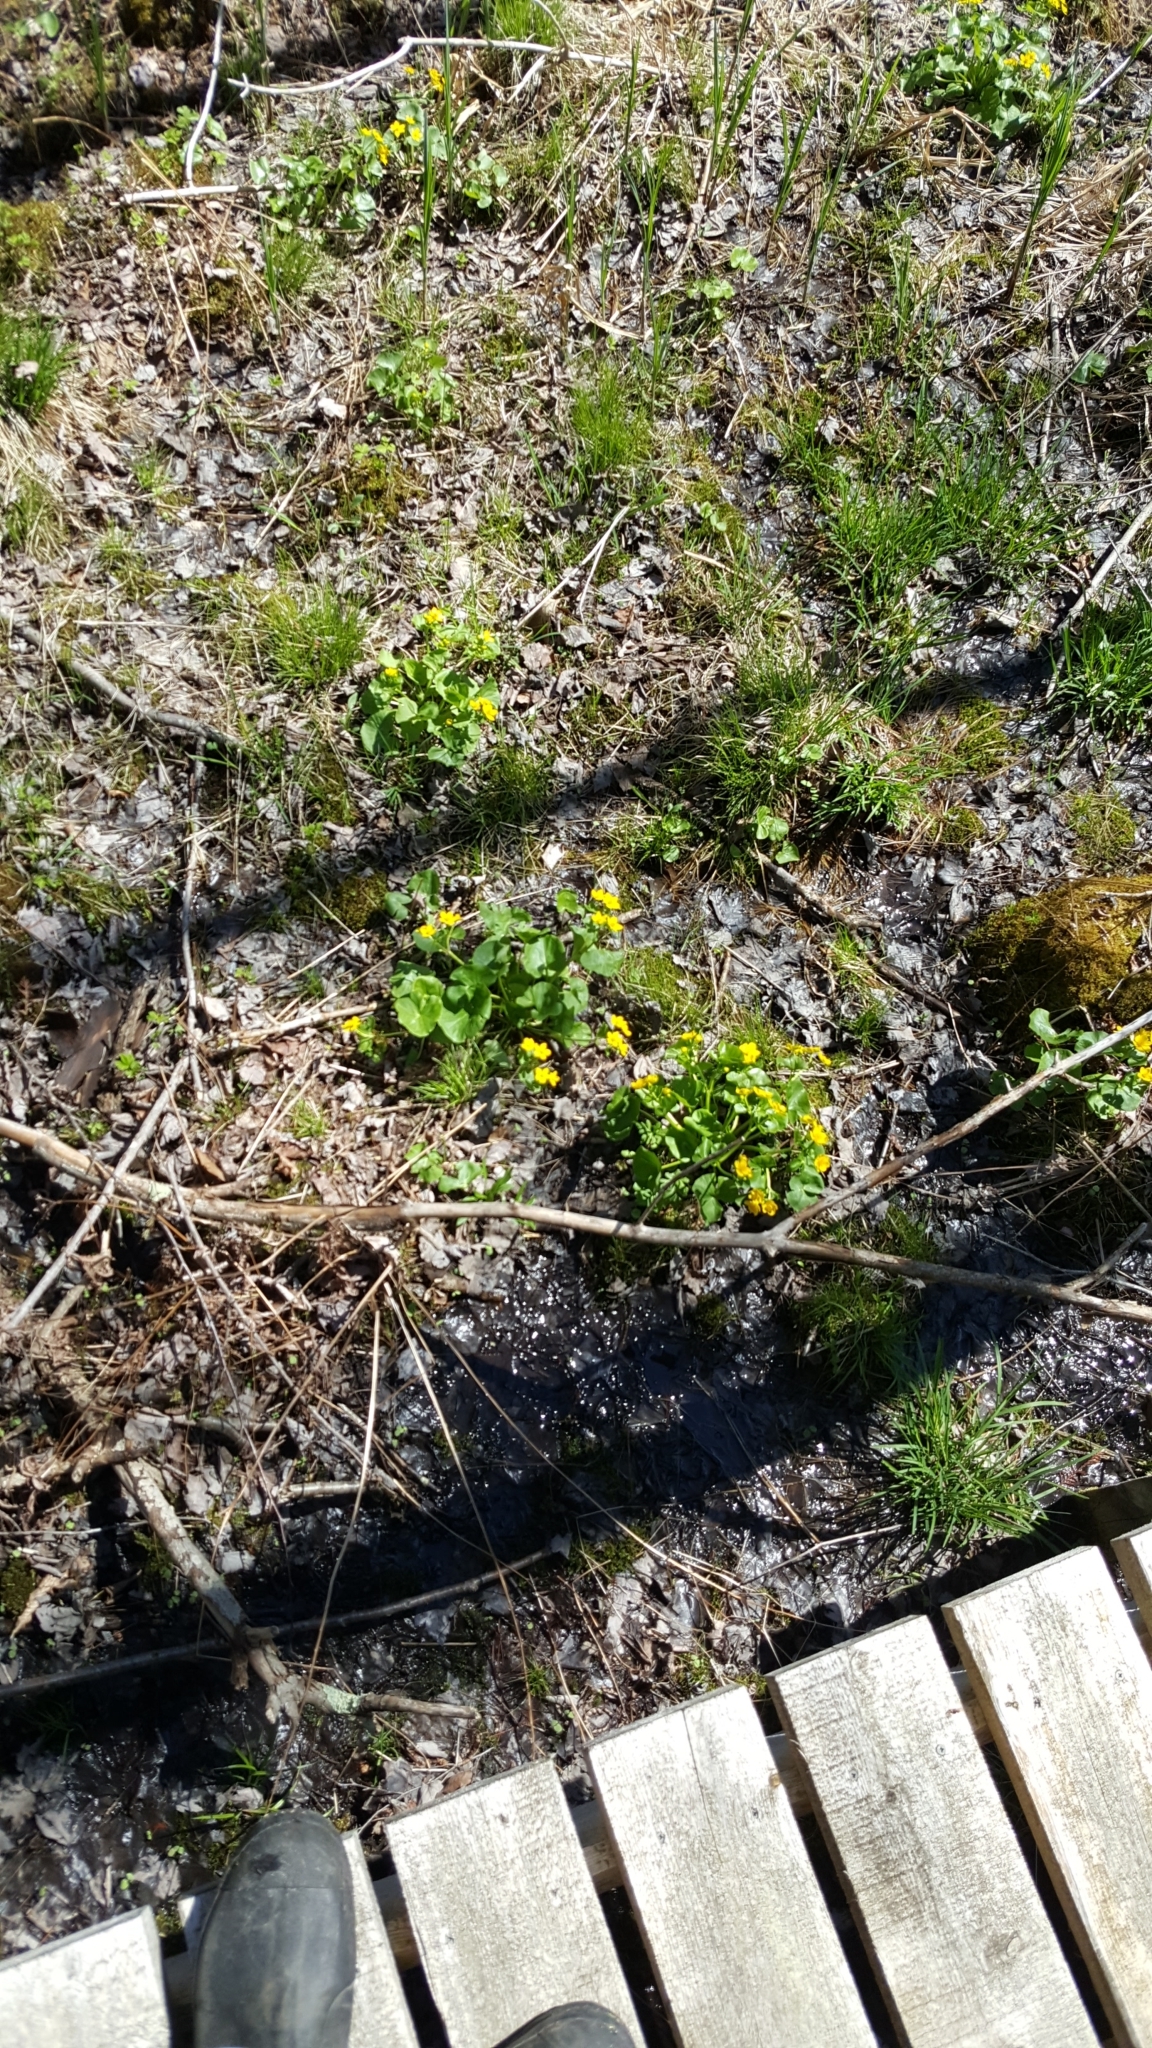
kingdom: Plantae
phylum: Tracheophyta
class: Magnoliopsida
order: Ranunculales
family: Ranunculaceae
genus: Caltha
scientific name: Caltha palustris
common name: Marsh marigold
